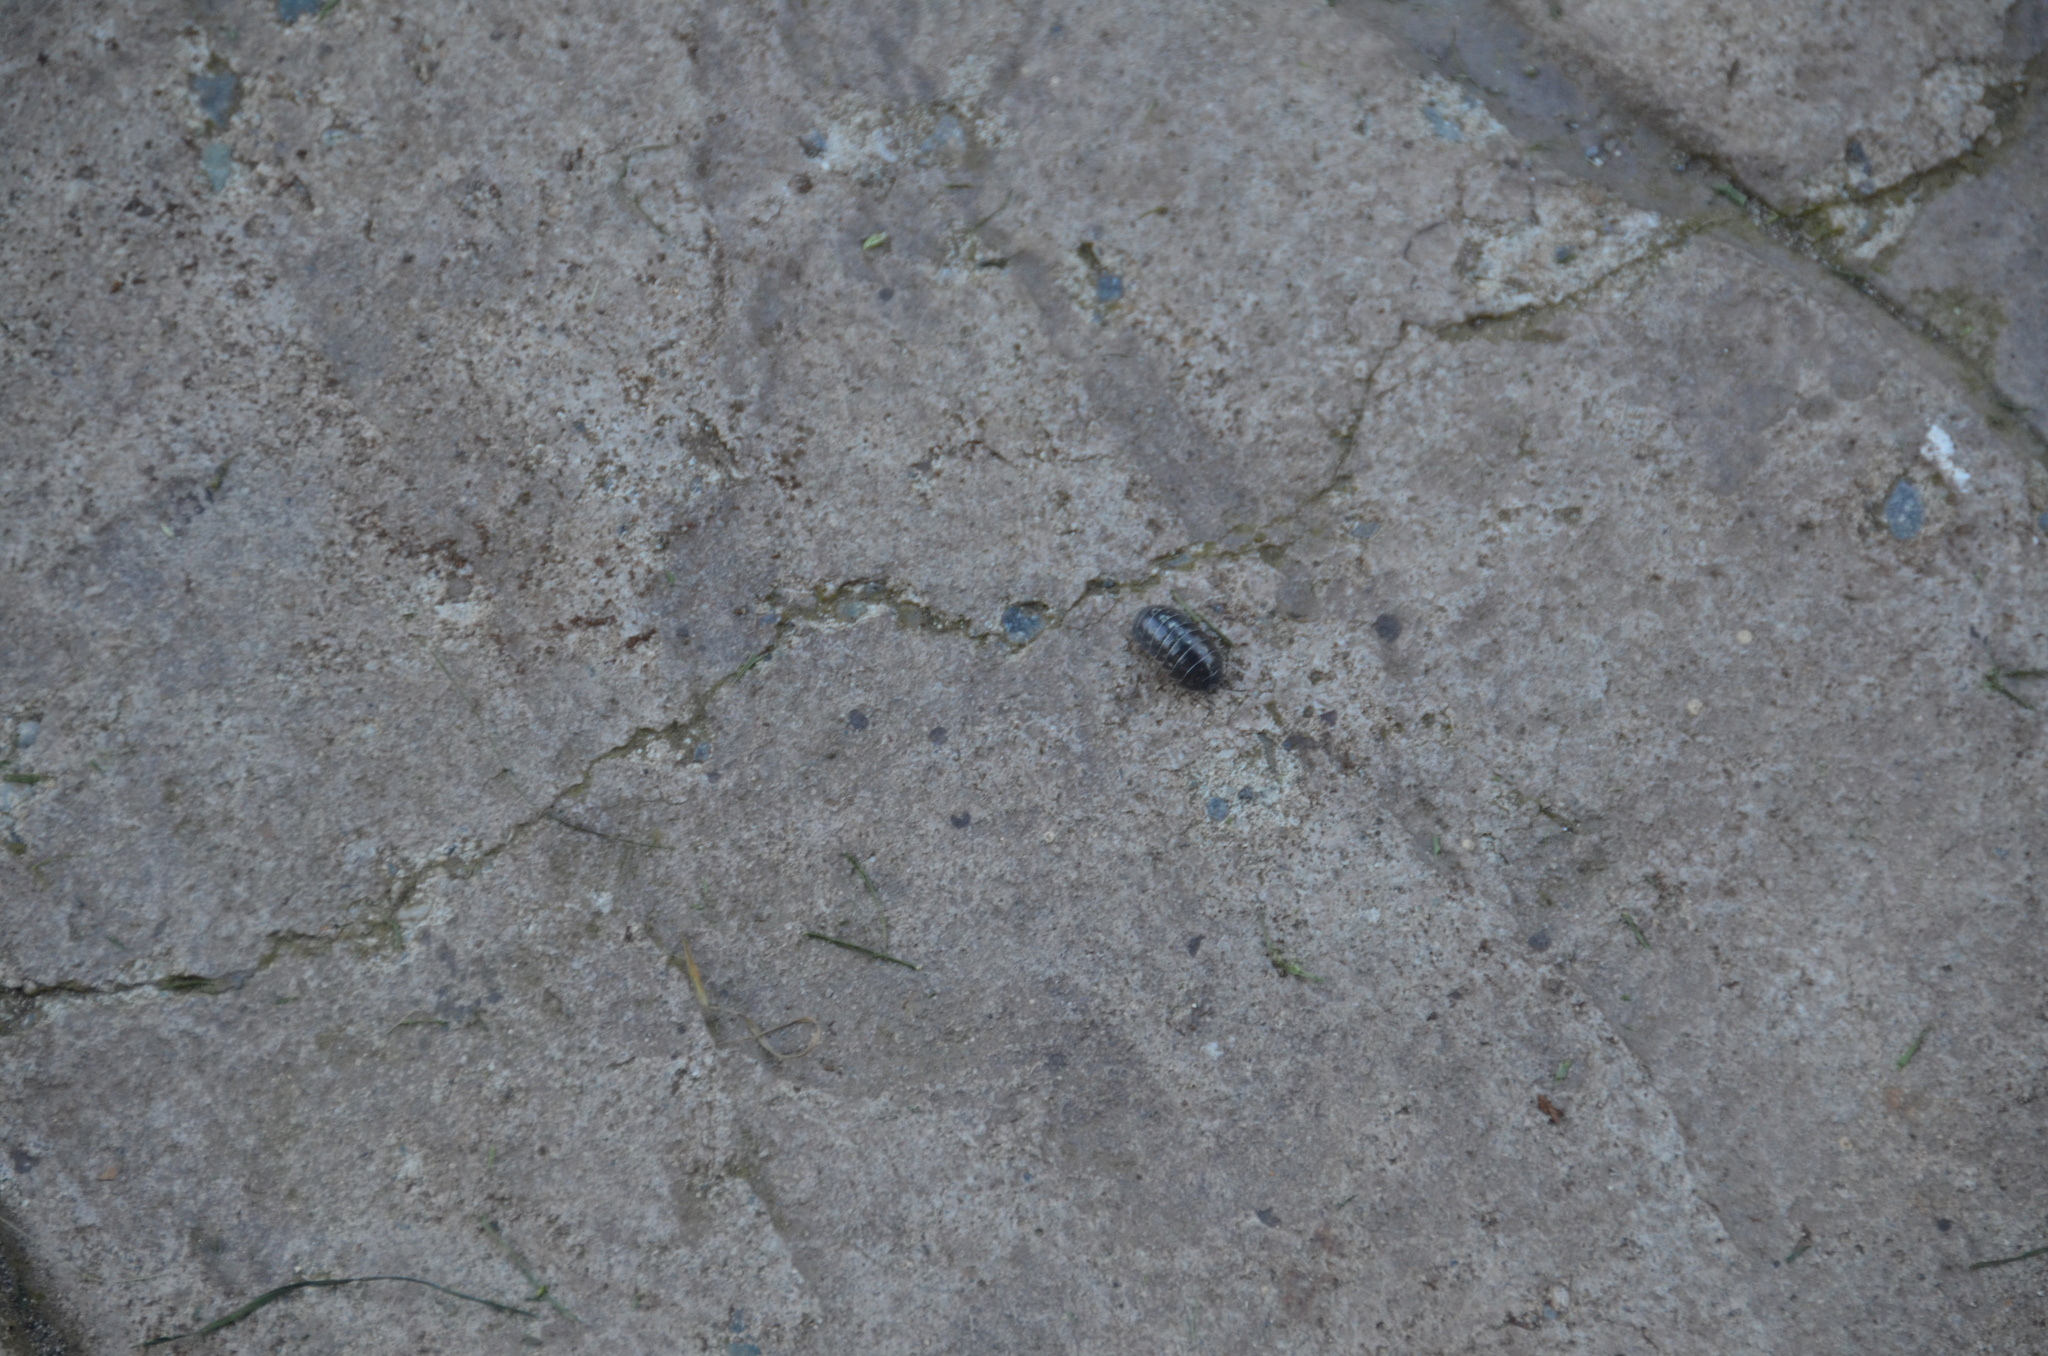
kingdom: Animalia
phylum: Arthropoda
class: Malacostraca
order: Isopoda
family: Armadillidiidae
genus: Armadillidium
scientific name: Armadillidium vulgare
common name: Common pill woodlouse
